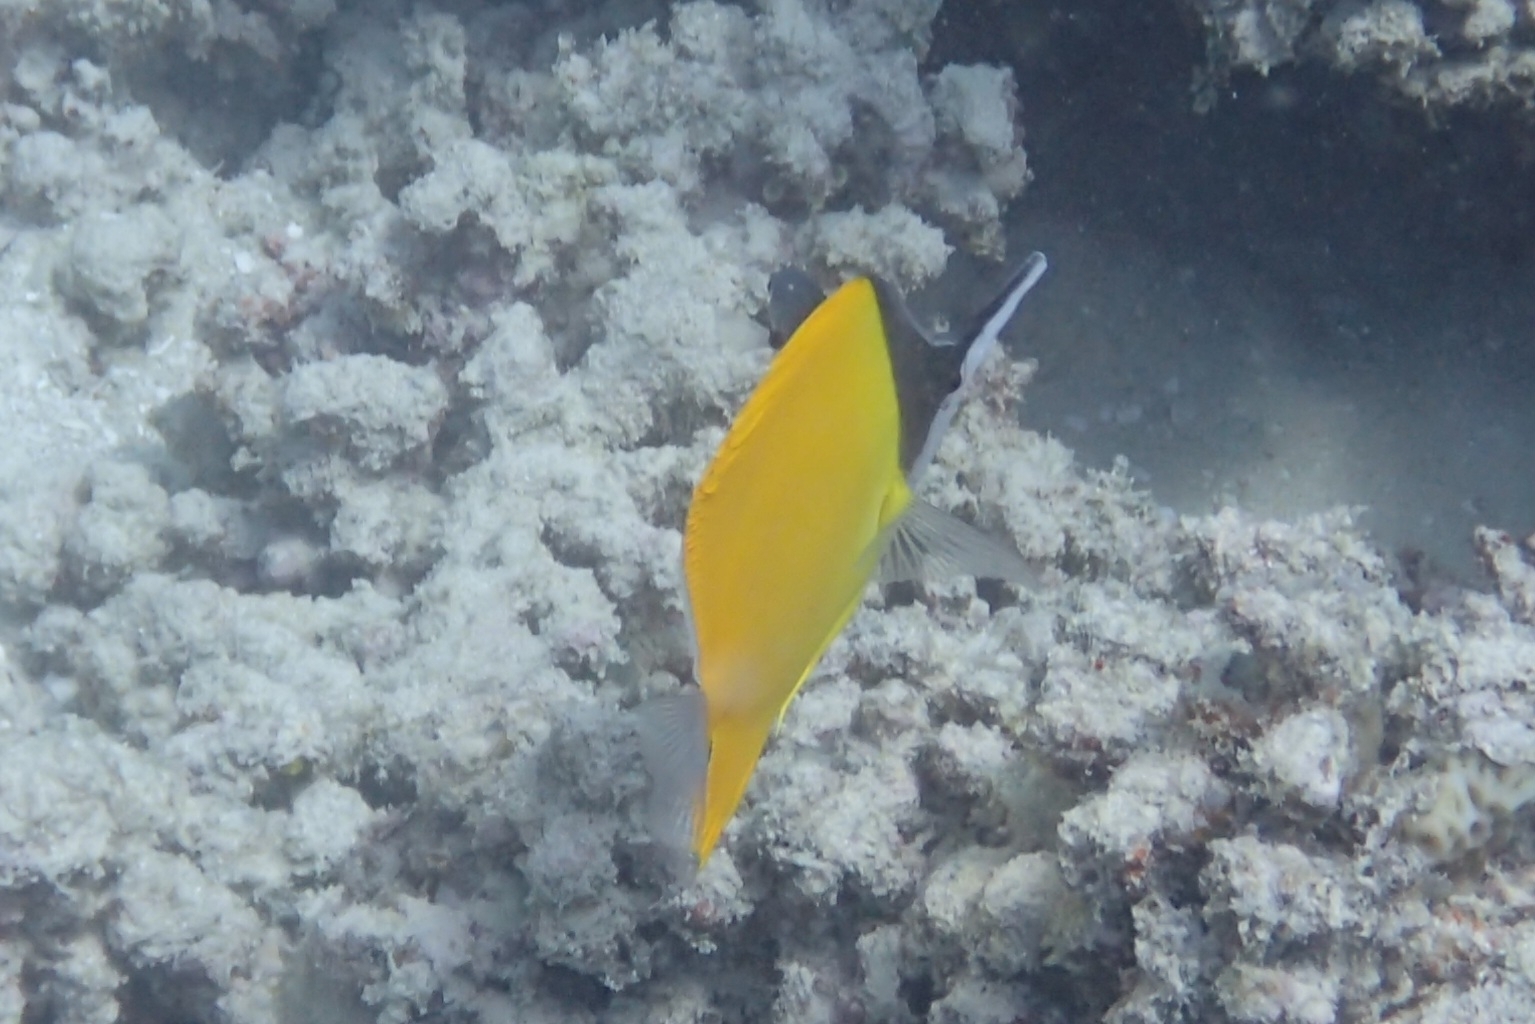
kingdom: Animalia
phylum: Chordata
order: Perciformes
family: Chaetodontidae
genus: Forcipiger
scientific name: Forcipiger flavissimus
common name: Forcepsfish
